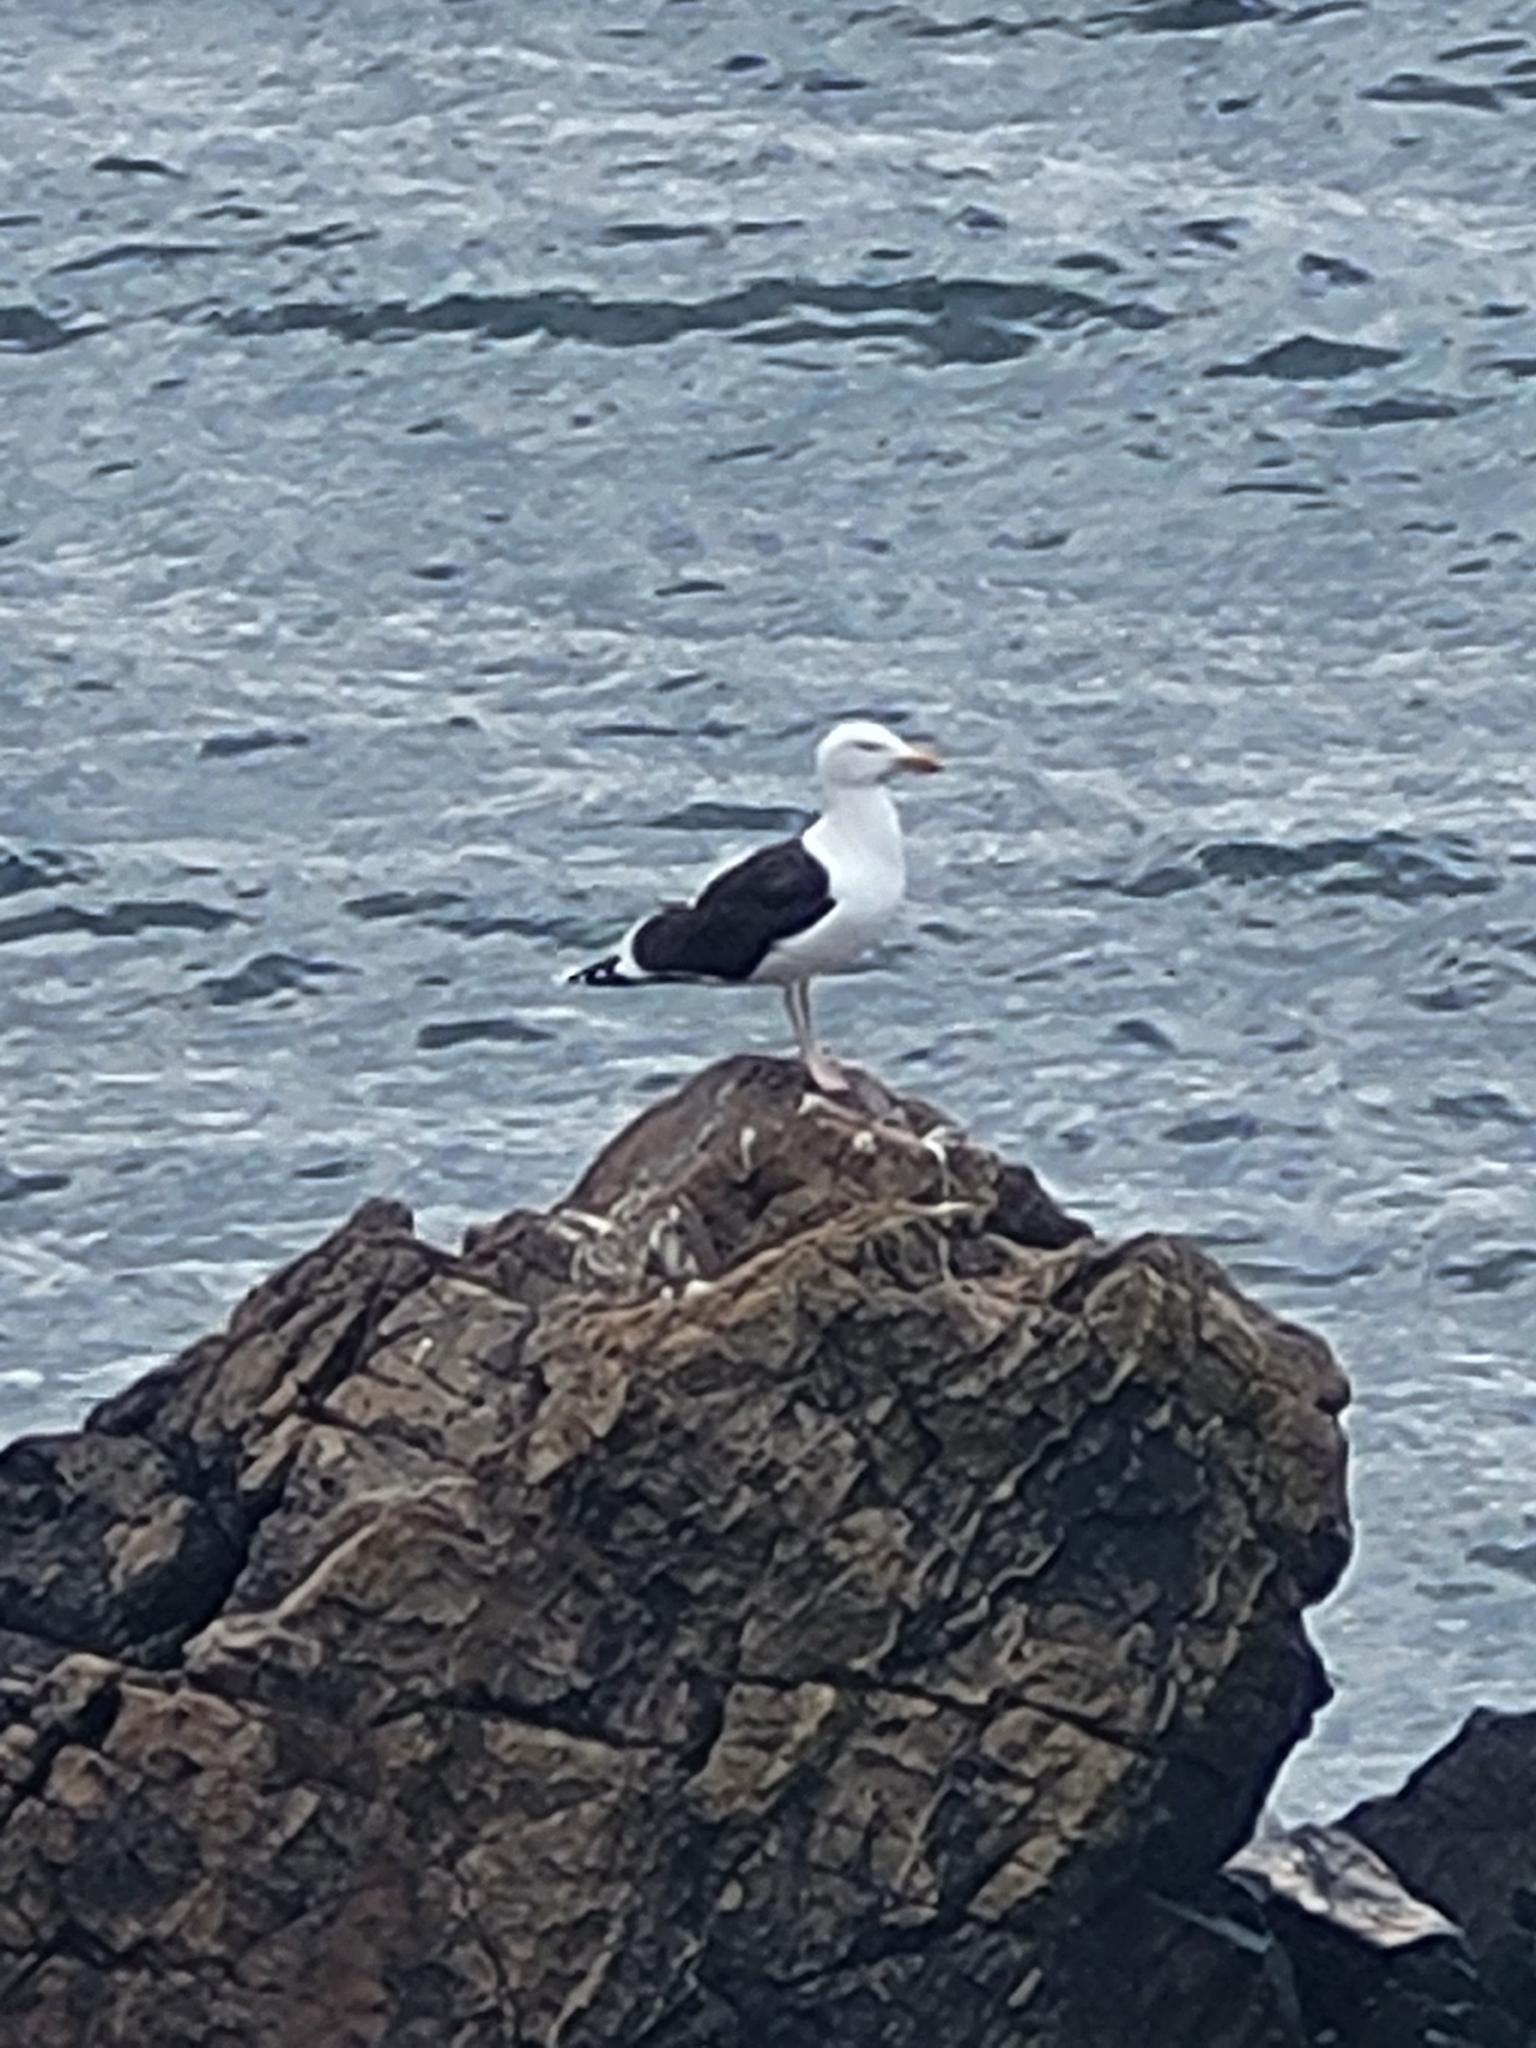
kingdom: Animalia
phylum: Chordata
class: Aves
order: Charadriiformes
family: Laridae
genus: Larus
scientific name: Larus marinus
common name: Great black-backed gull
